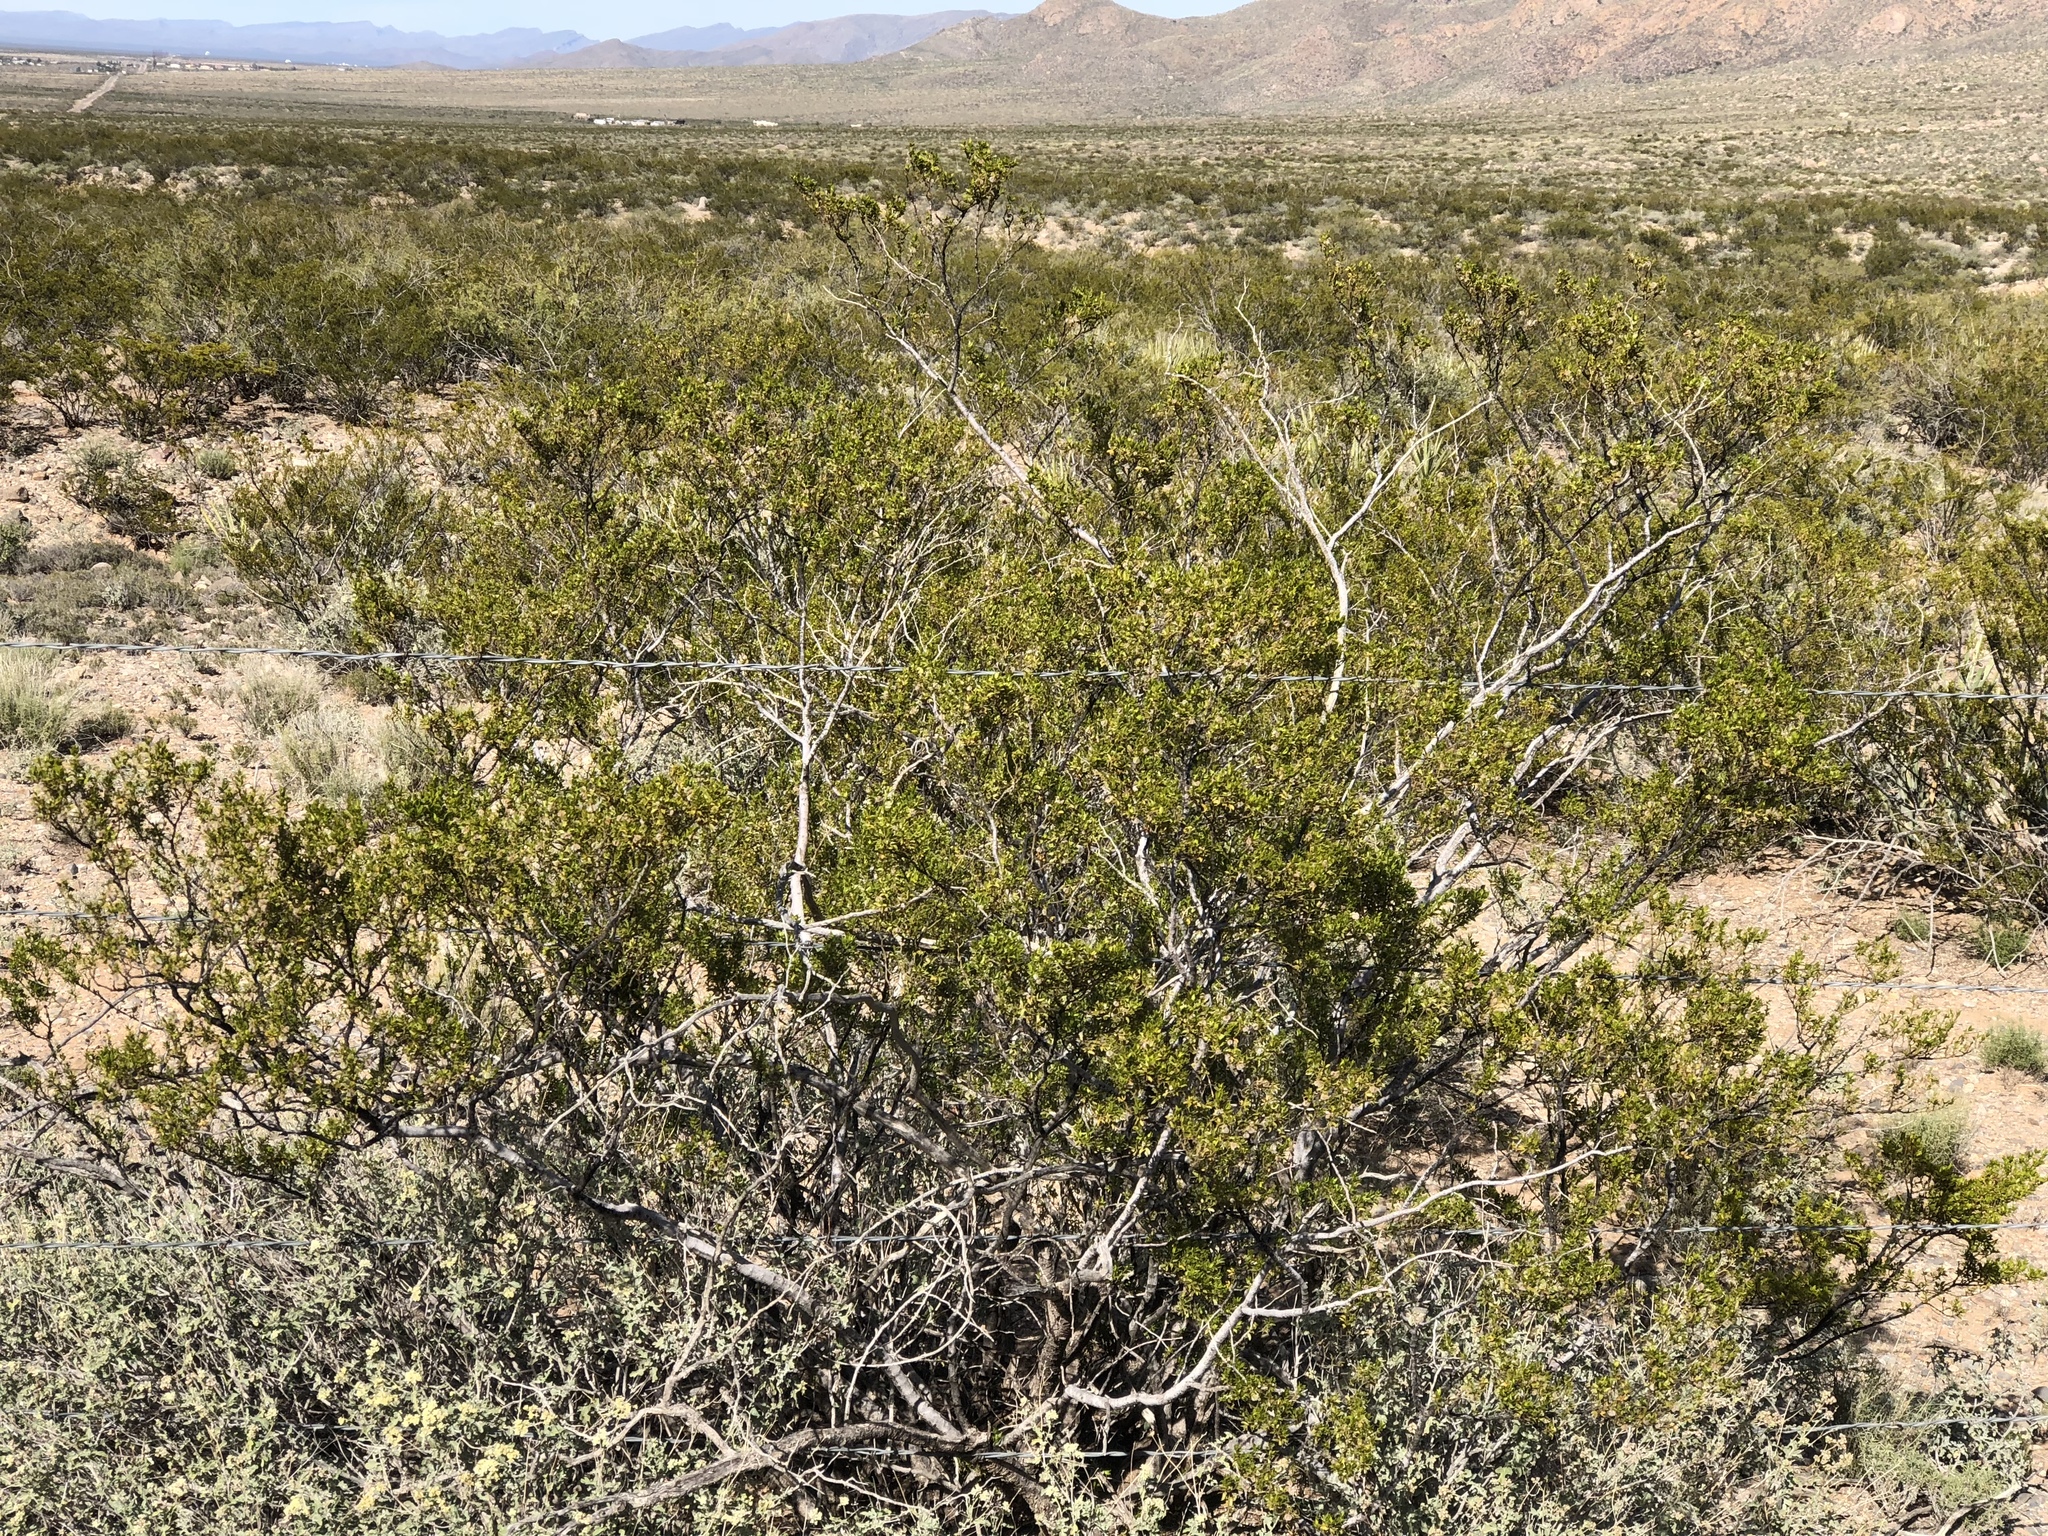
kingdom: Plantae
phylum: Tracheophyta
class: Magnoliopsida
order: Zygophyllales
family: Zygophyllaceae
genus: Larrea
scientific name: Larrea tridentata
